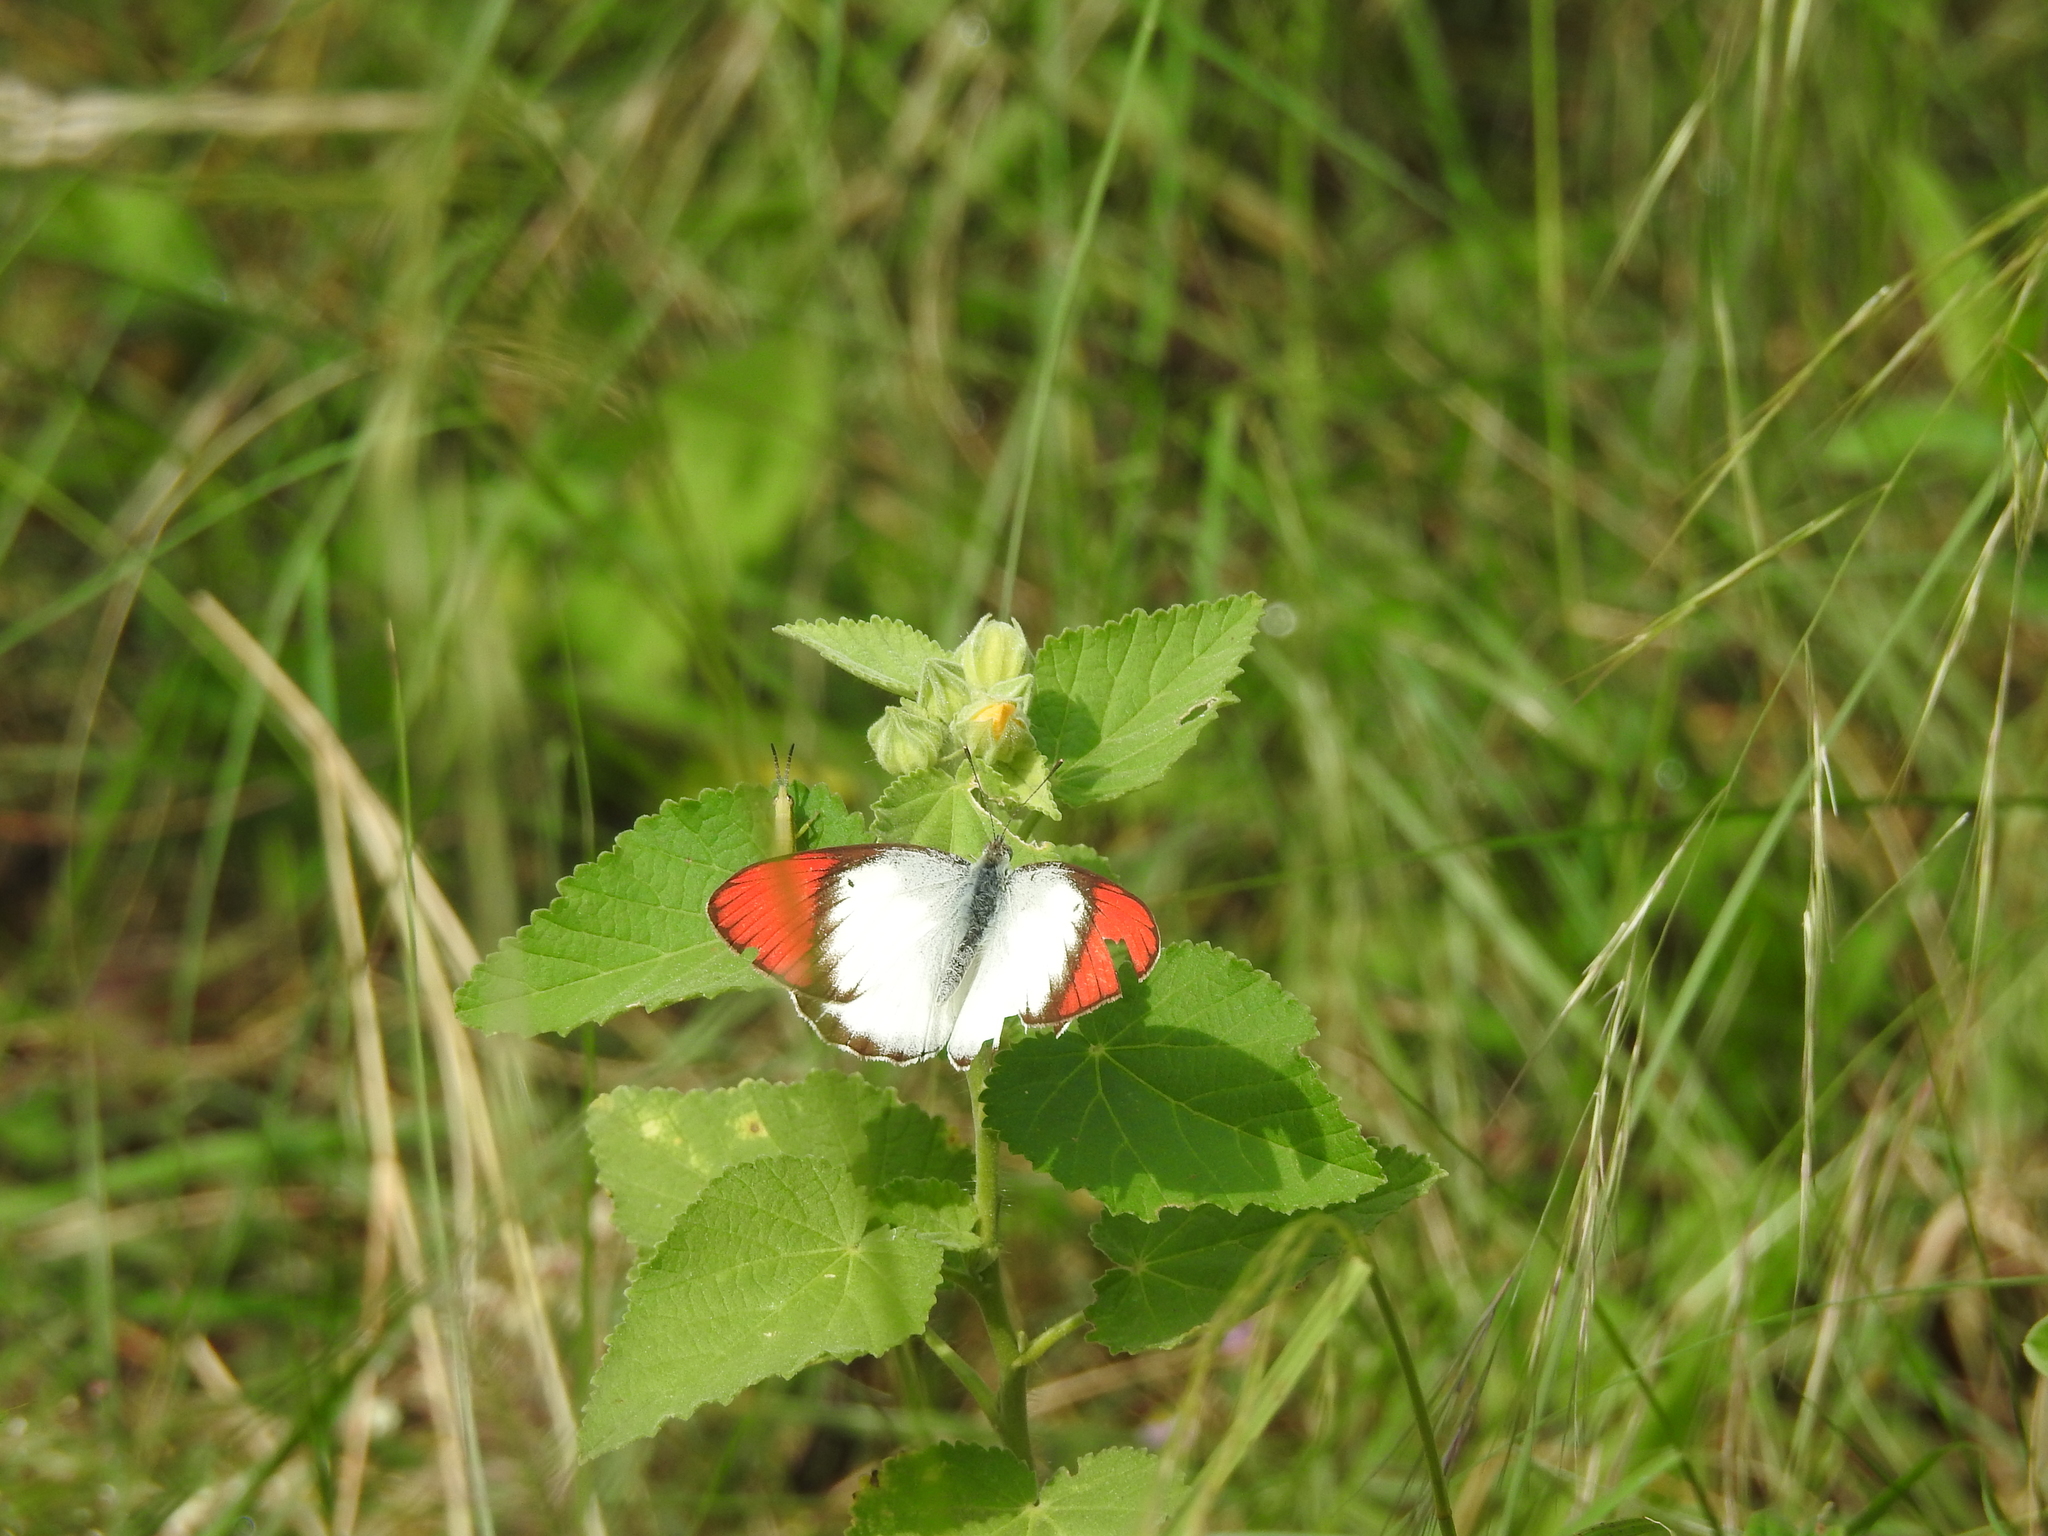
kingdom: Animalia
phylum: Arthropoda
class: Insecta
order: Lepidoptera
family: Pieridae
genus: Colotis
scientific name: Colotis danae
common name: Crimson tip
